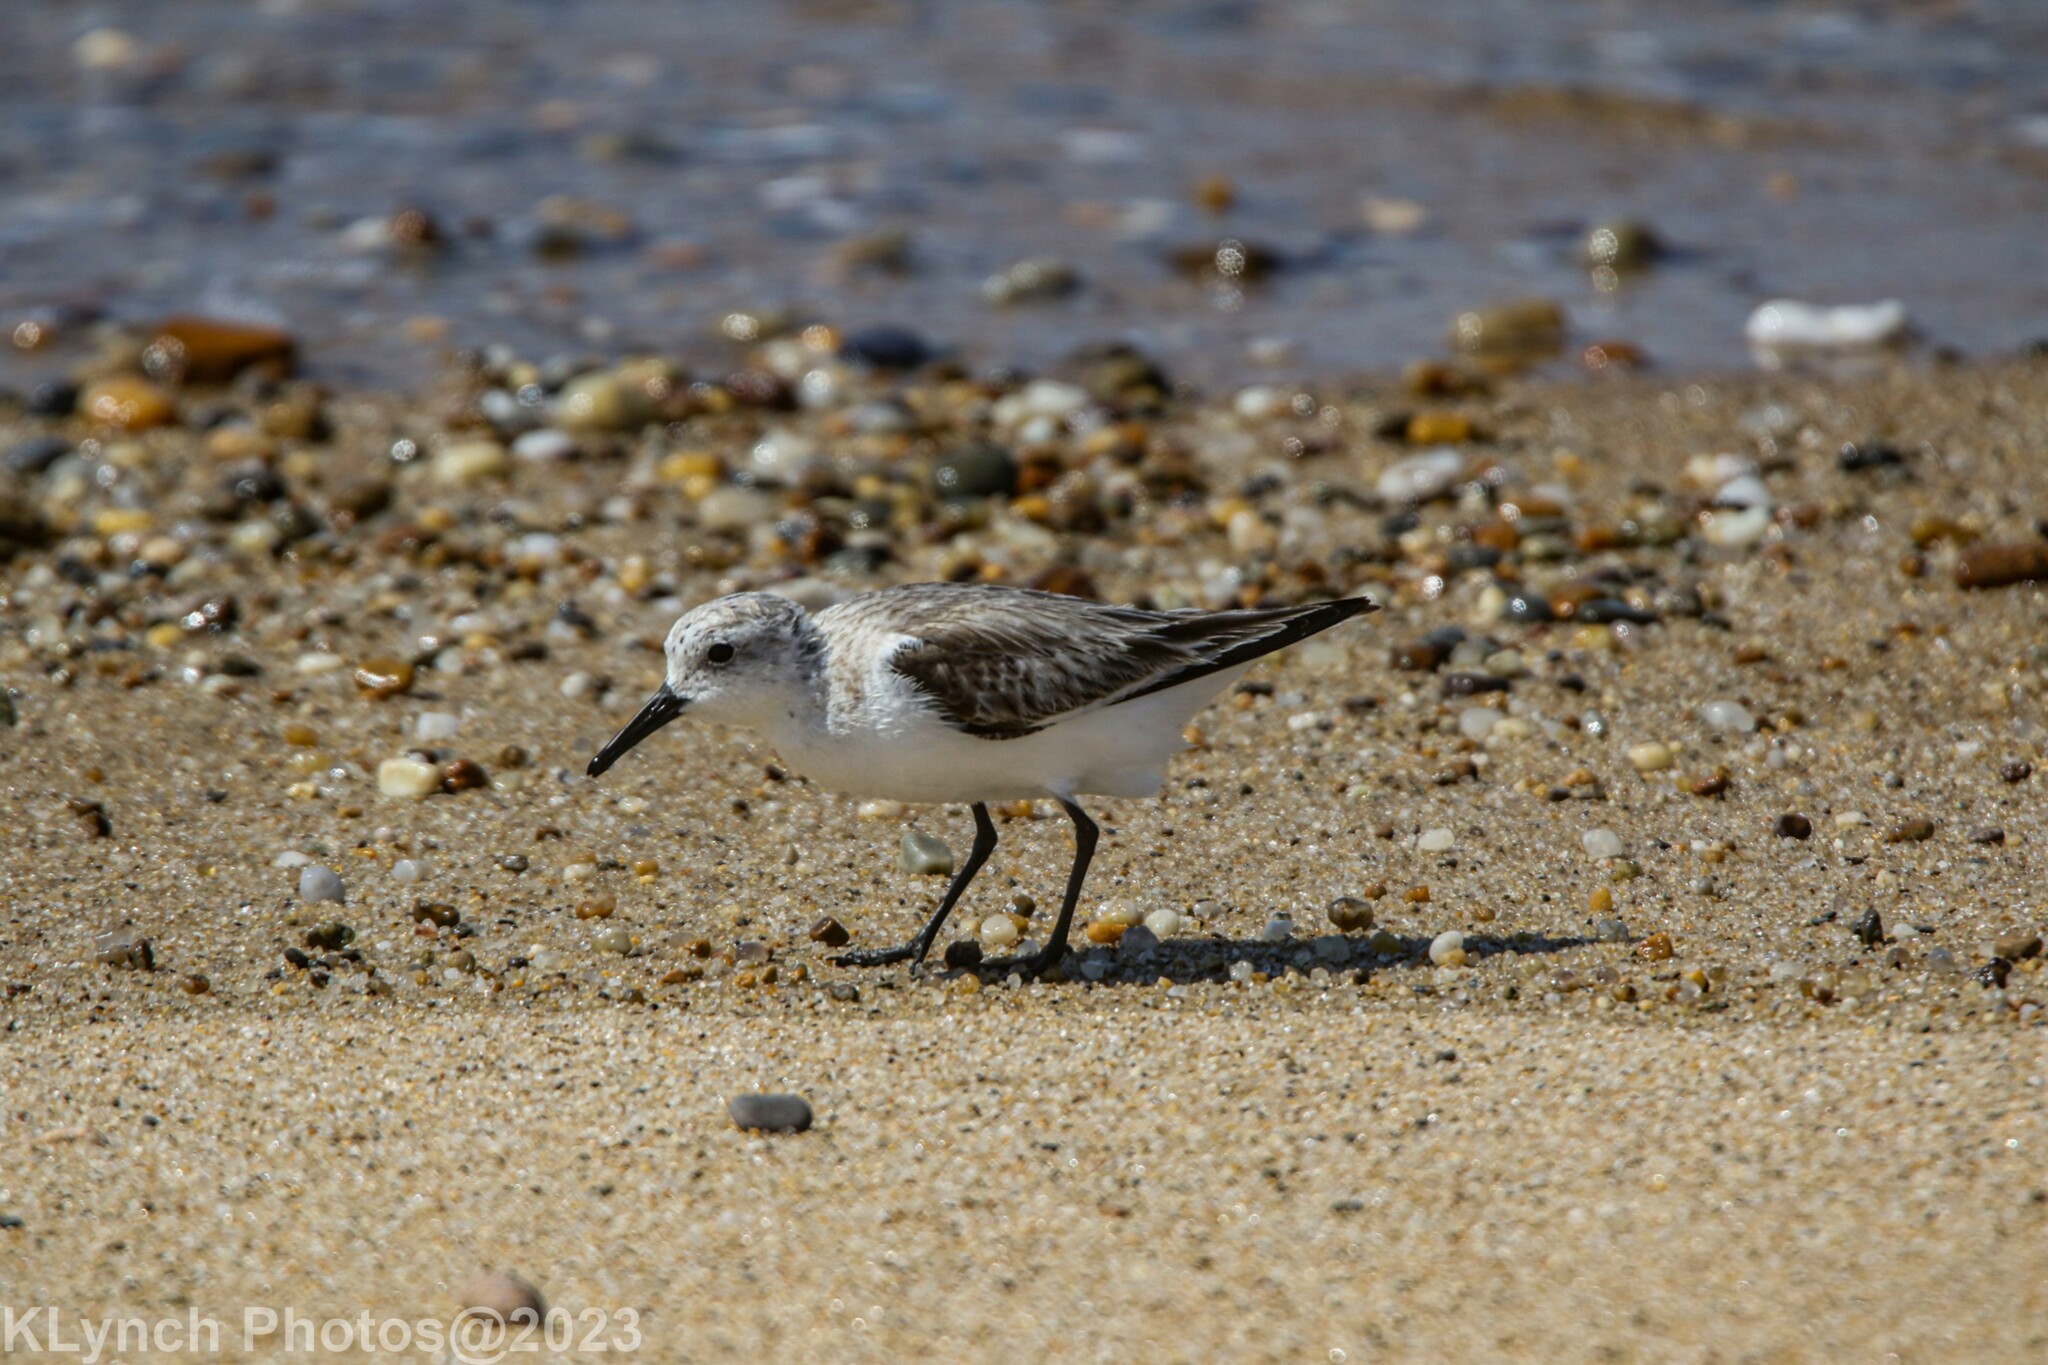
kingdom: Animalia
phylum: Chordata
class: Aves
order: Charadriiformes
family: Scolopacidae
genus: Calidris
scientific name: Calidris alba
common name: Sanderling
